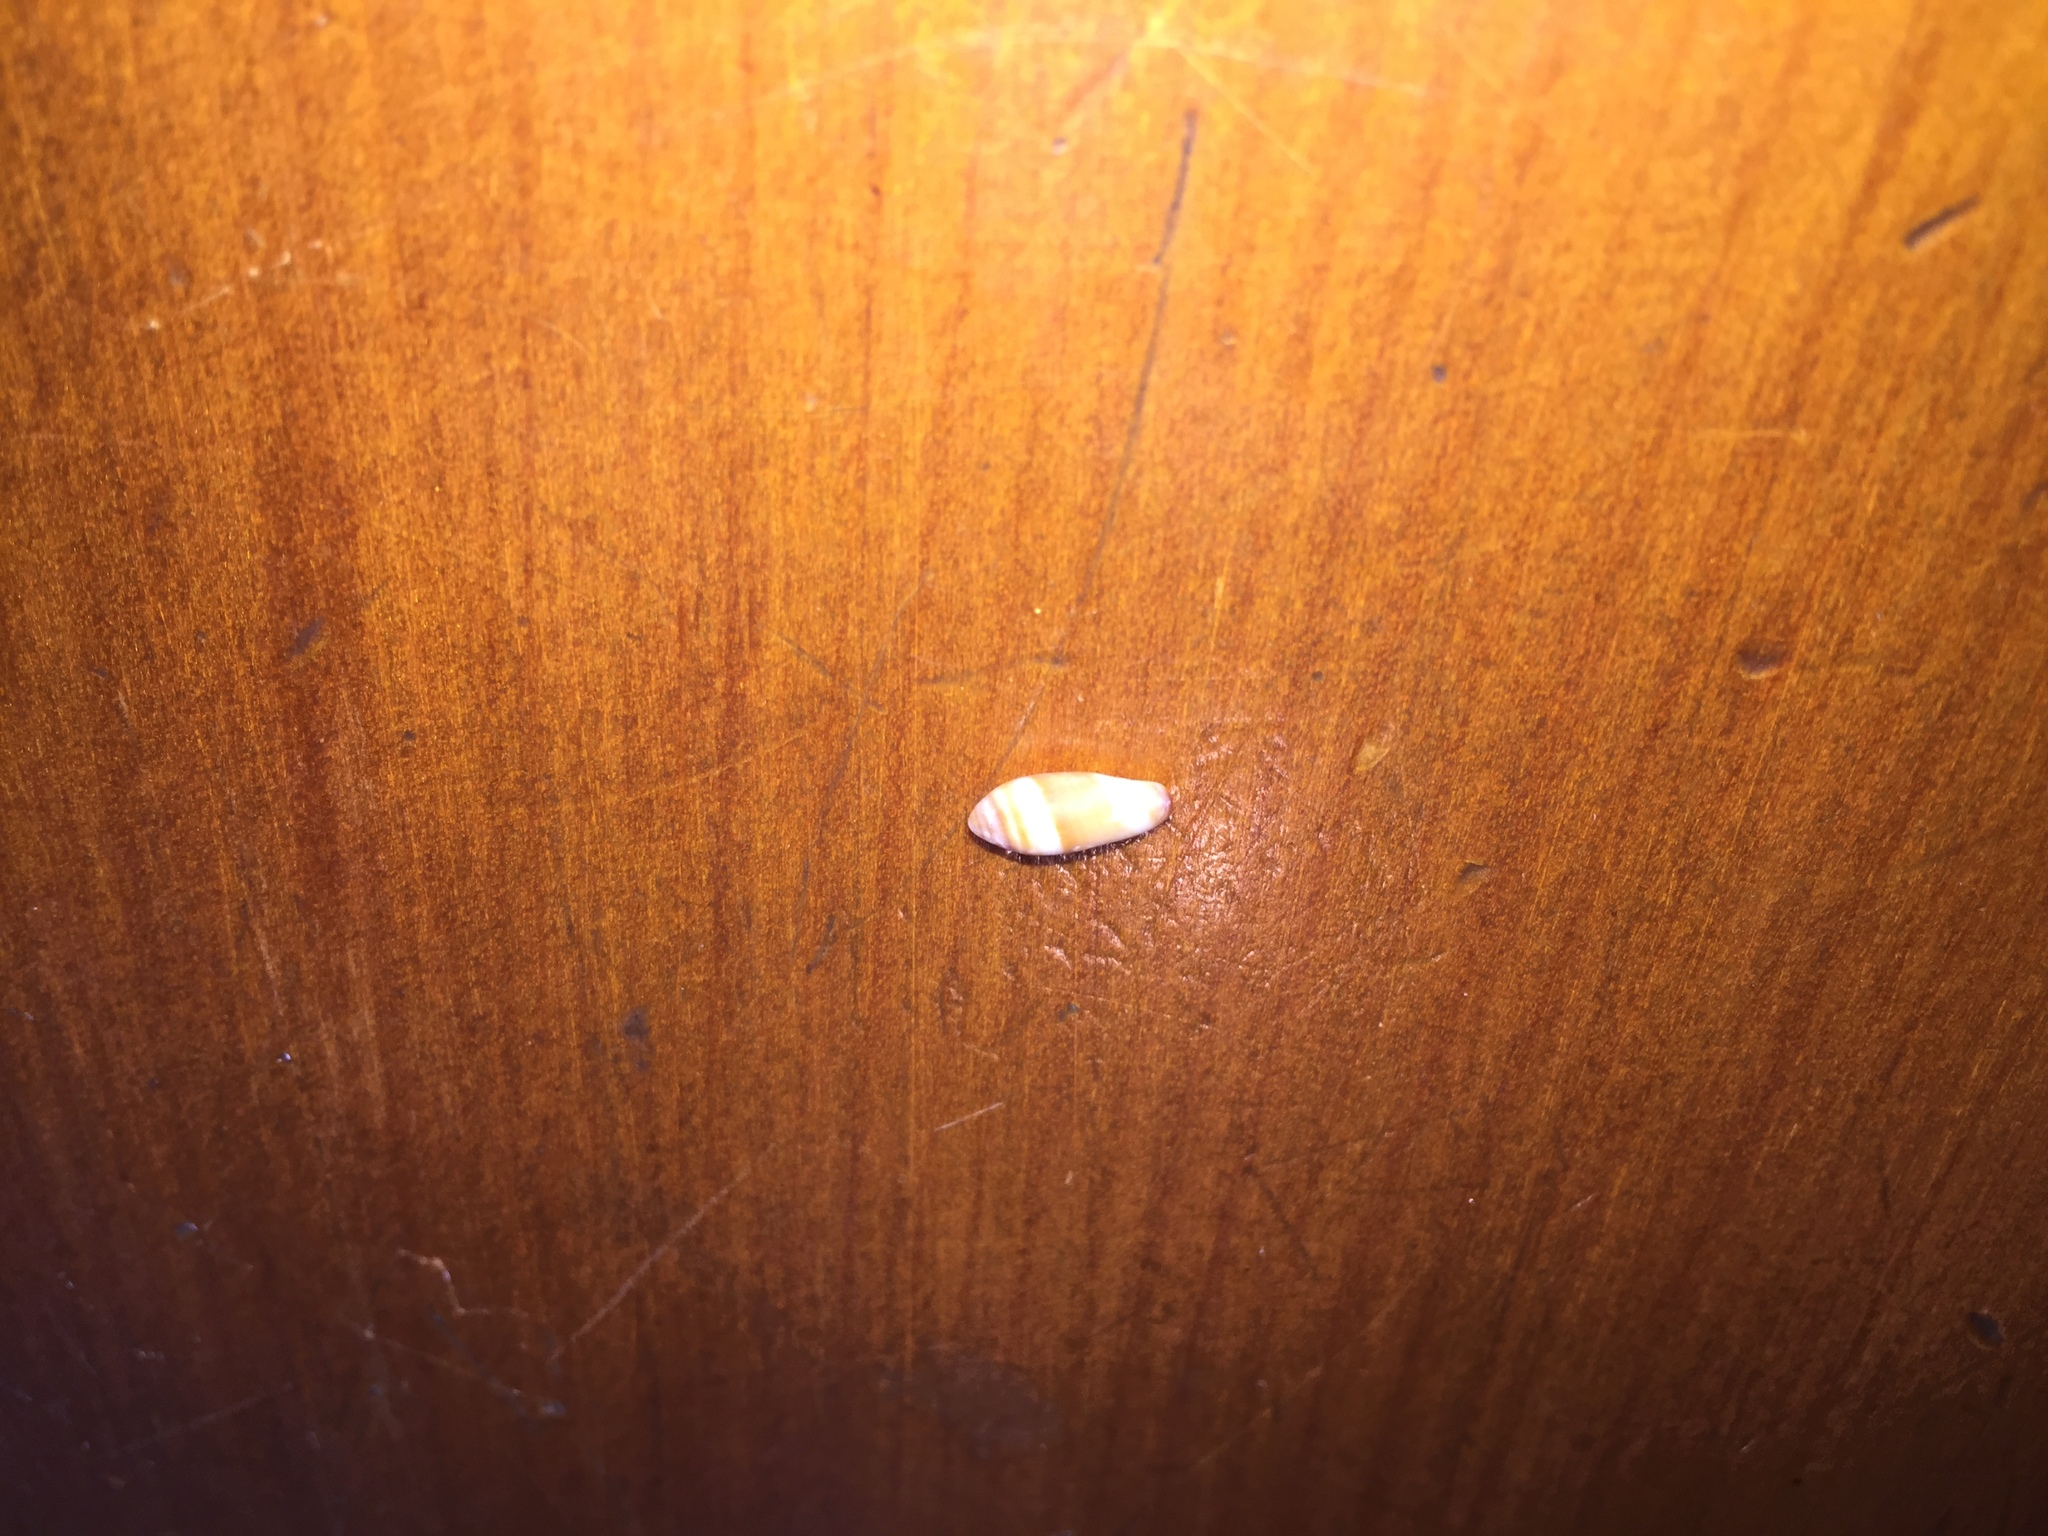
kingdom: Animalia
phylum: Mollusca
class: Gastropoda
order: Neogastropoda
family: Marginellidae
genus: Serrata
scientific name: Serrata fasciata
